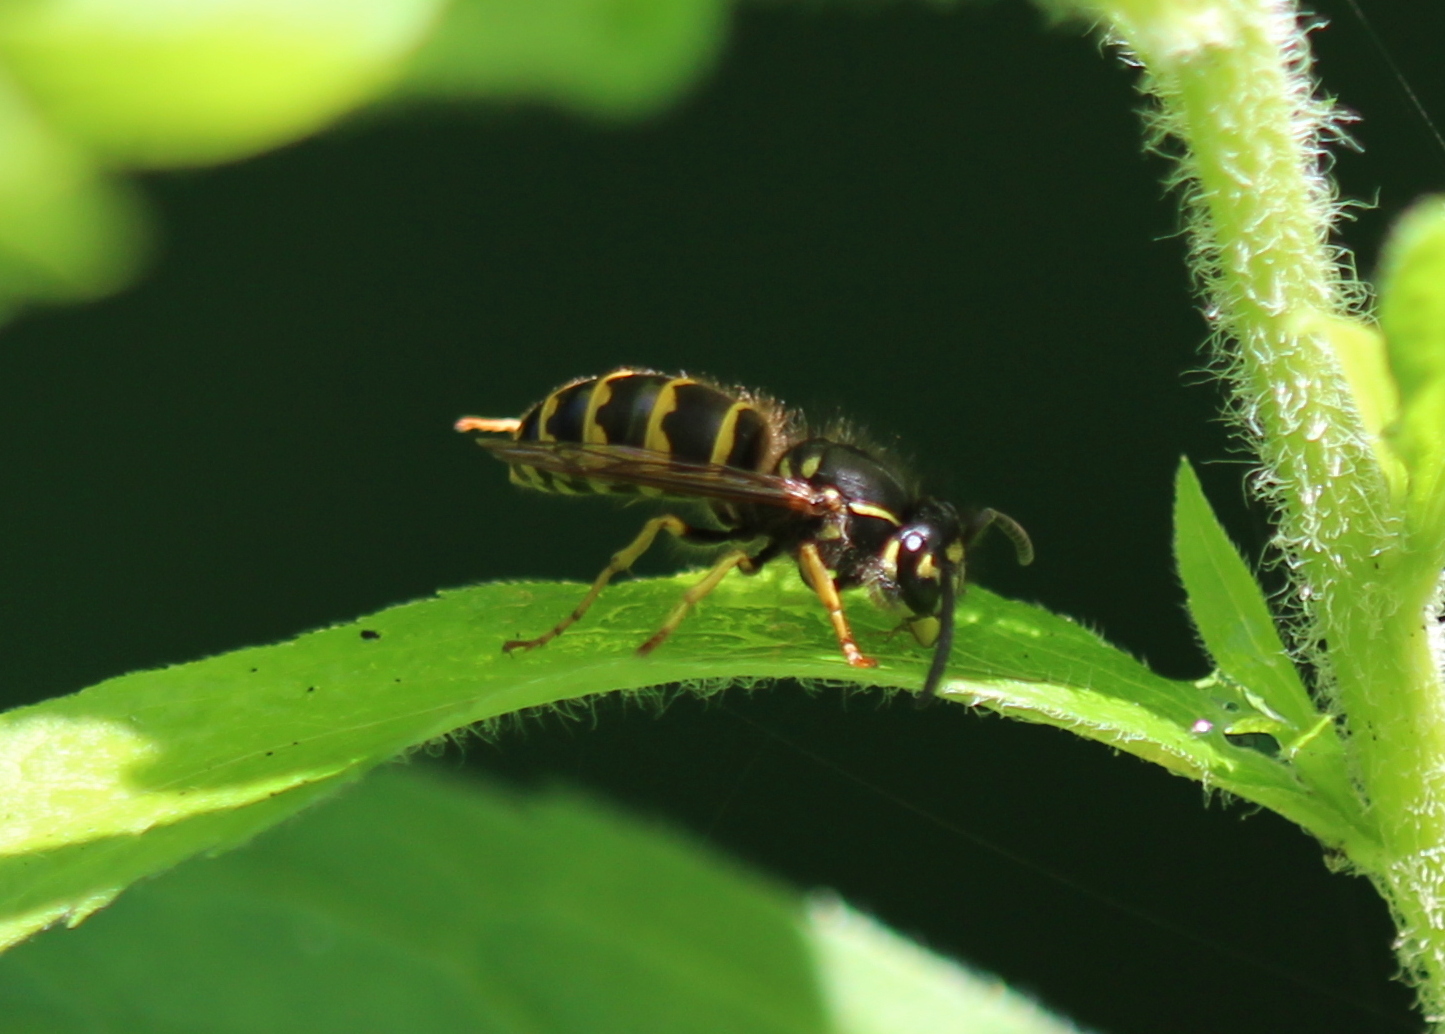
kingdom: Animalia
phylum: Arthropoda
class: Insecta
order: Hymenoptera
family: Vespidae
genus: Vespula
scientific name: Vespula alascensis
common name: Alaska yellowjacket
